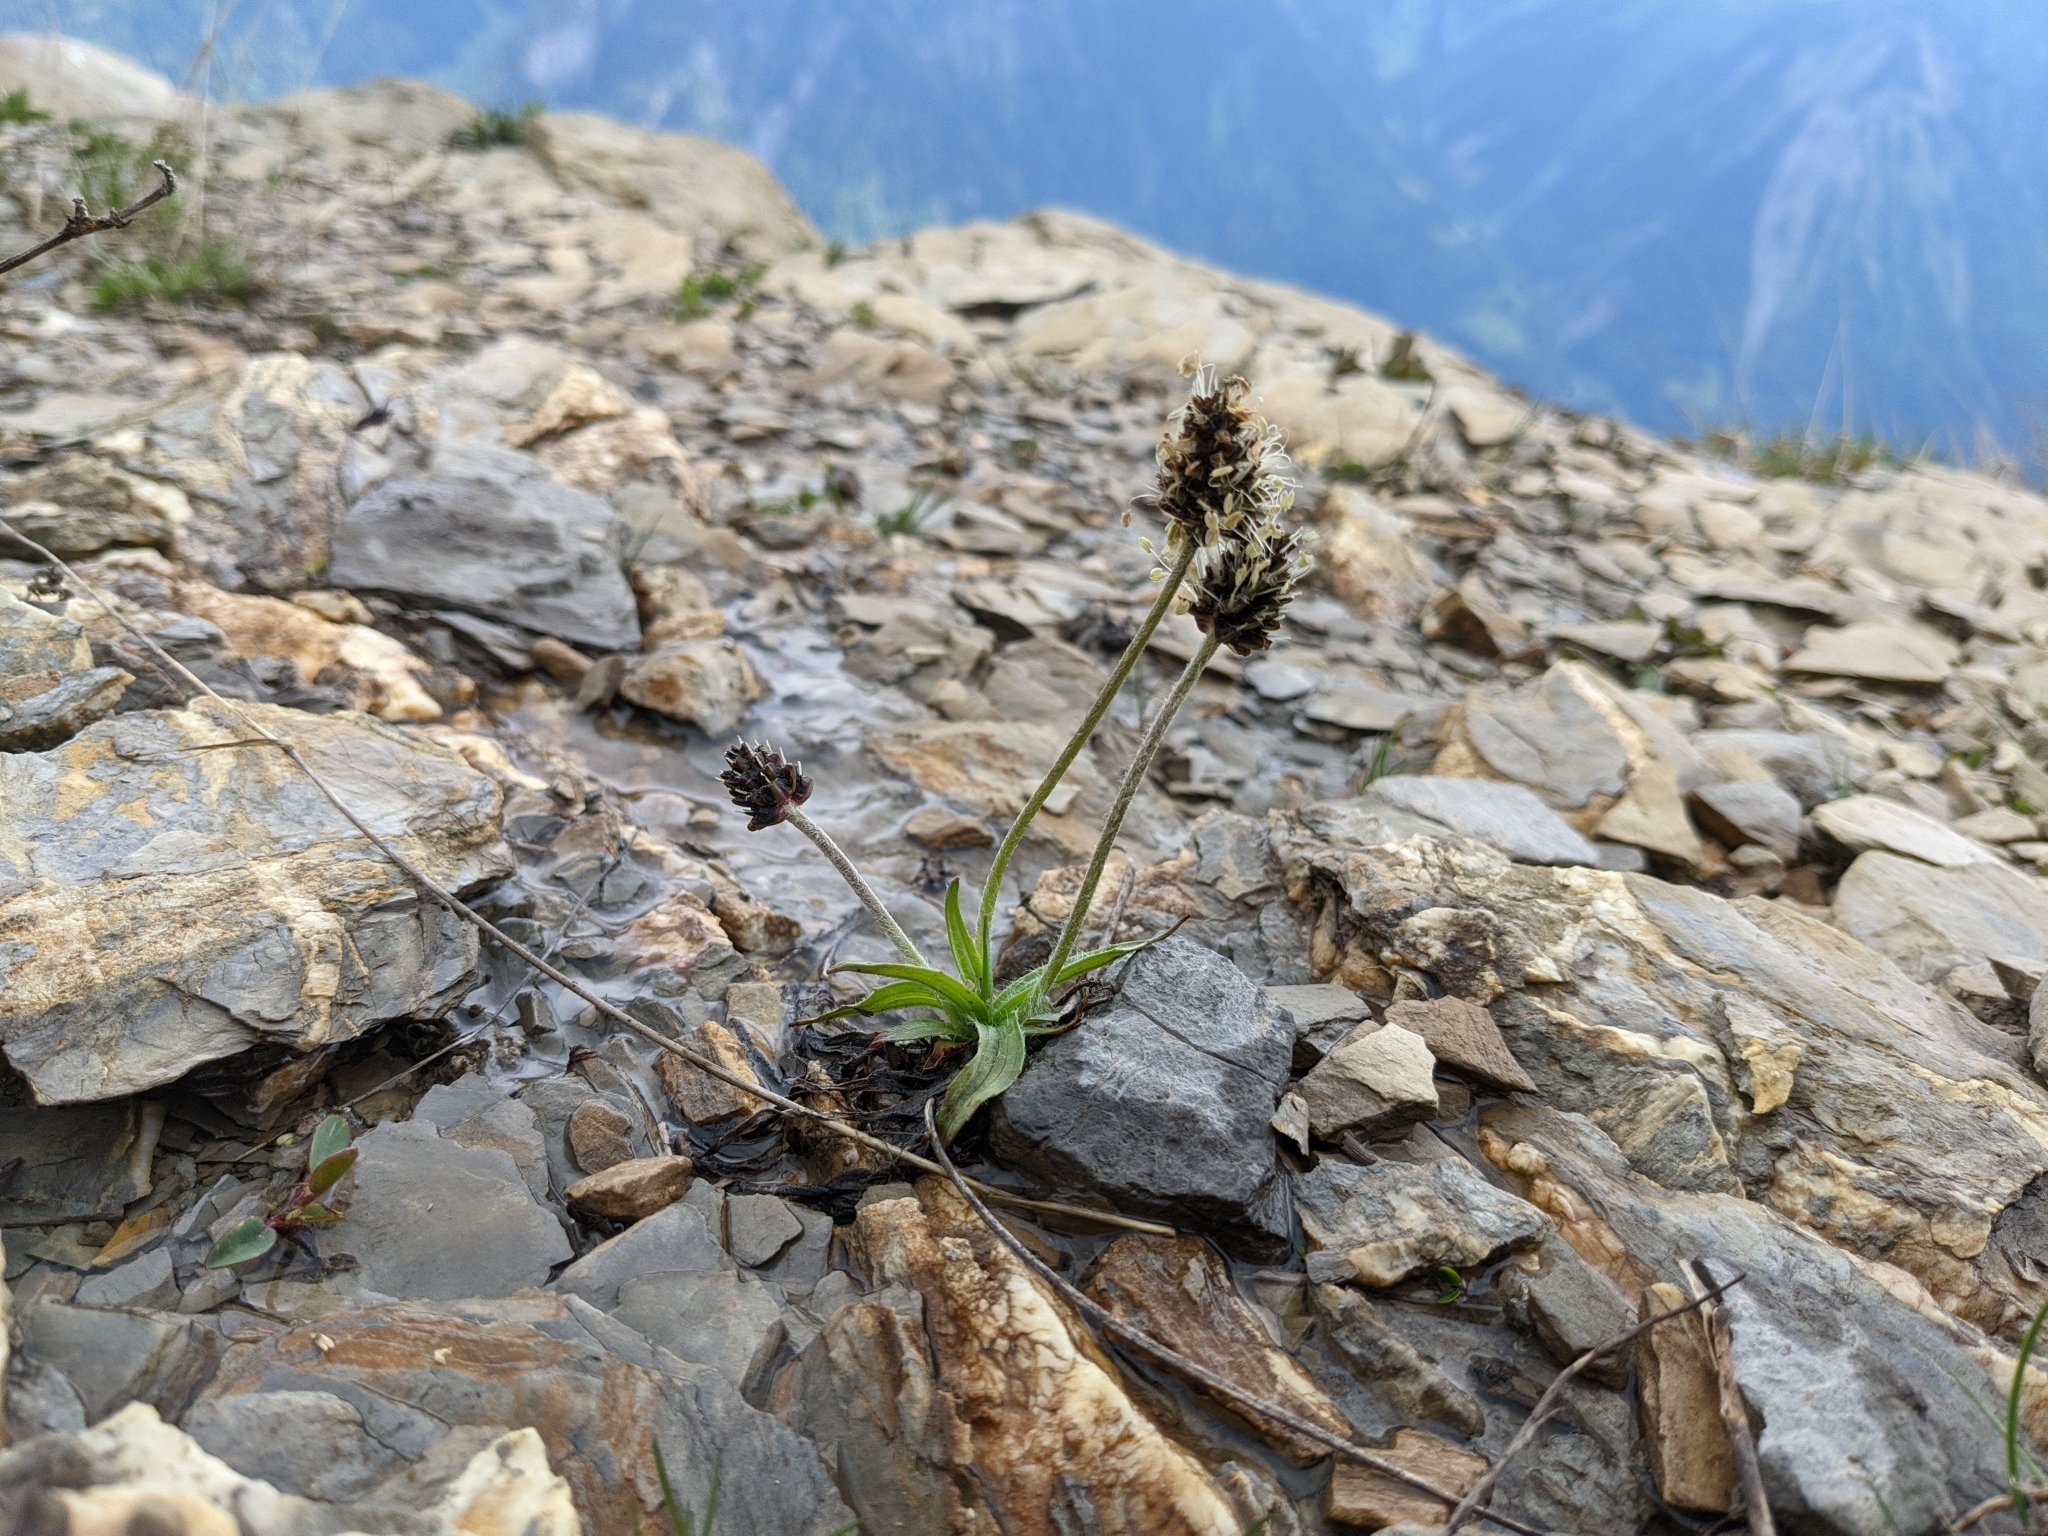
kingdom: Plantae
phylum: Tracheophyta
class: Magnoliopsida
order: Lamiales
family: Plantaginaceae
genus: Plantago
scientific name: Plantago atrata
